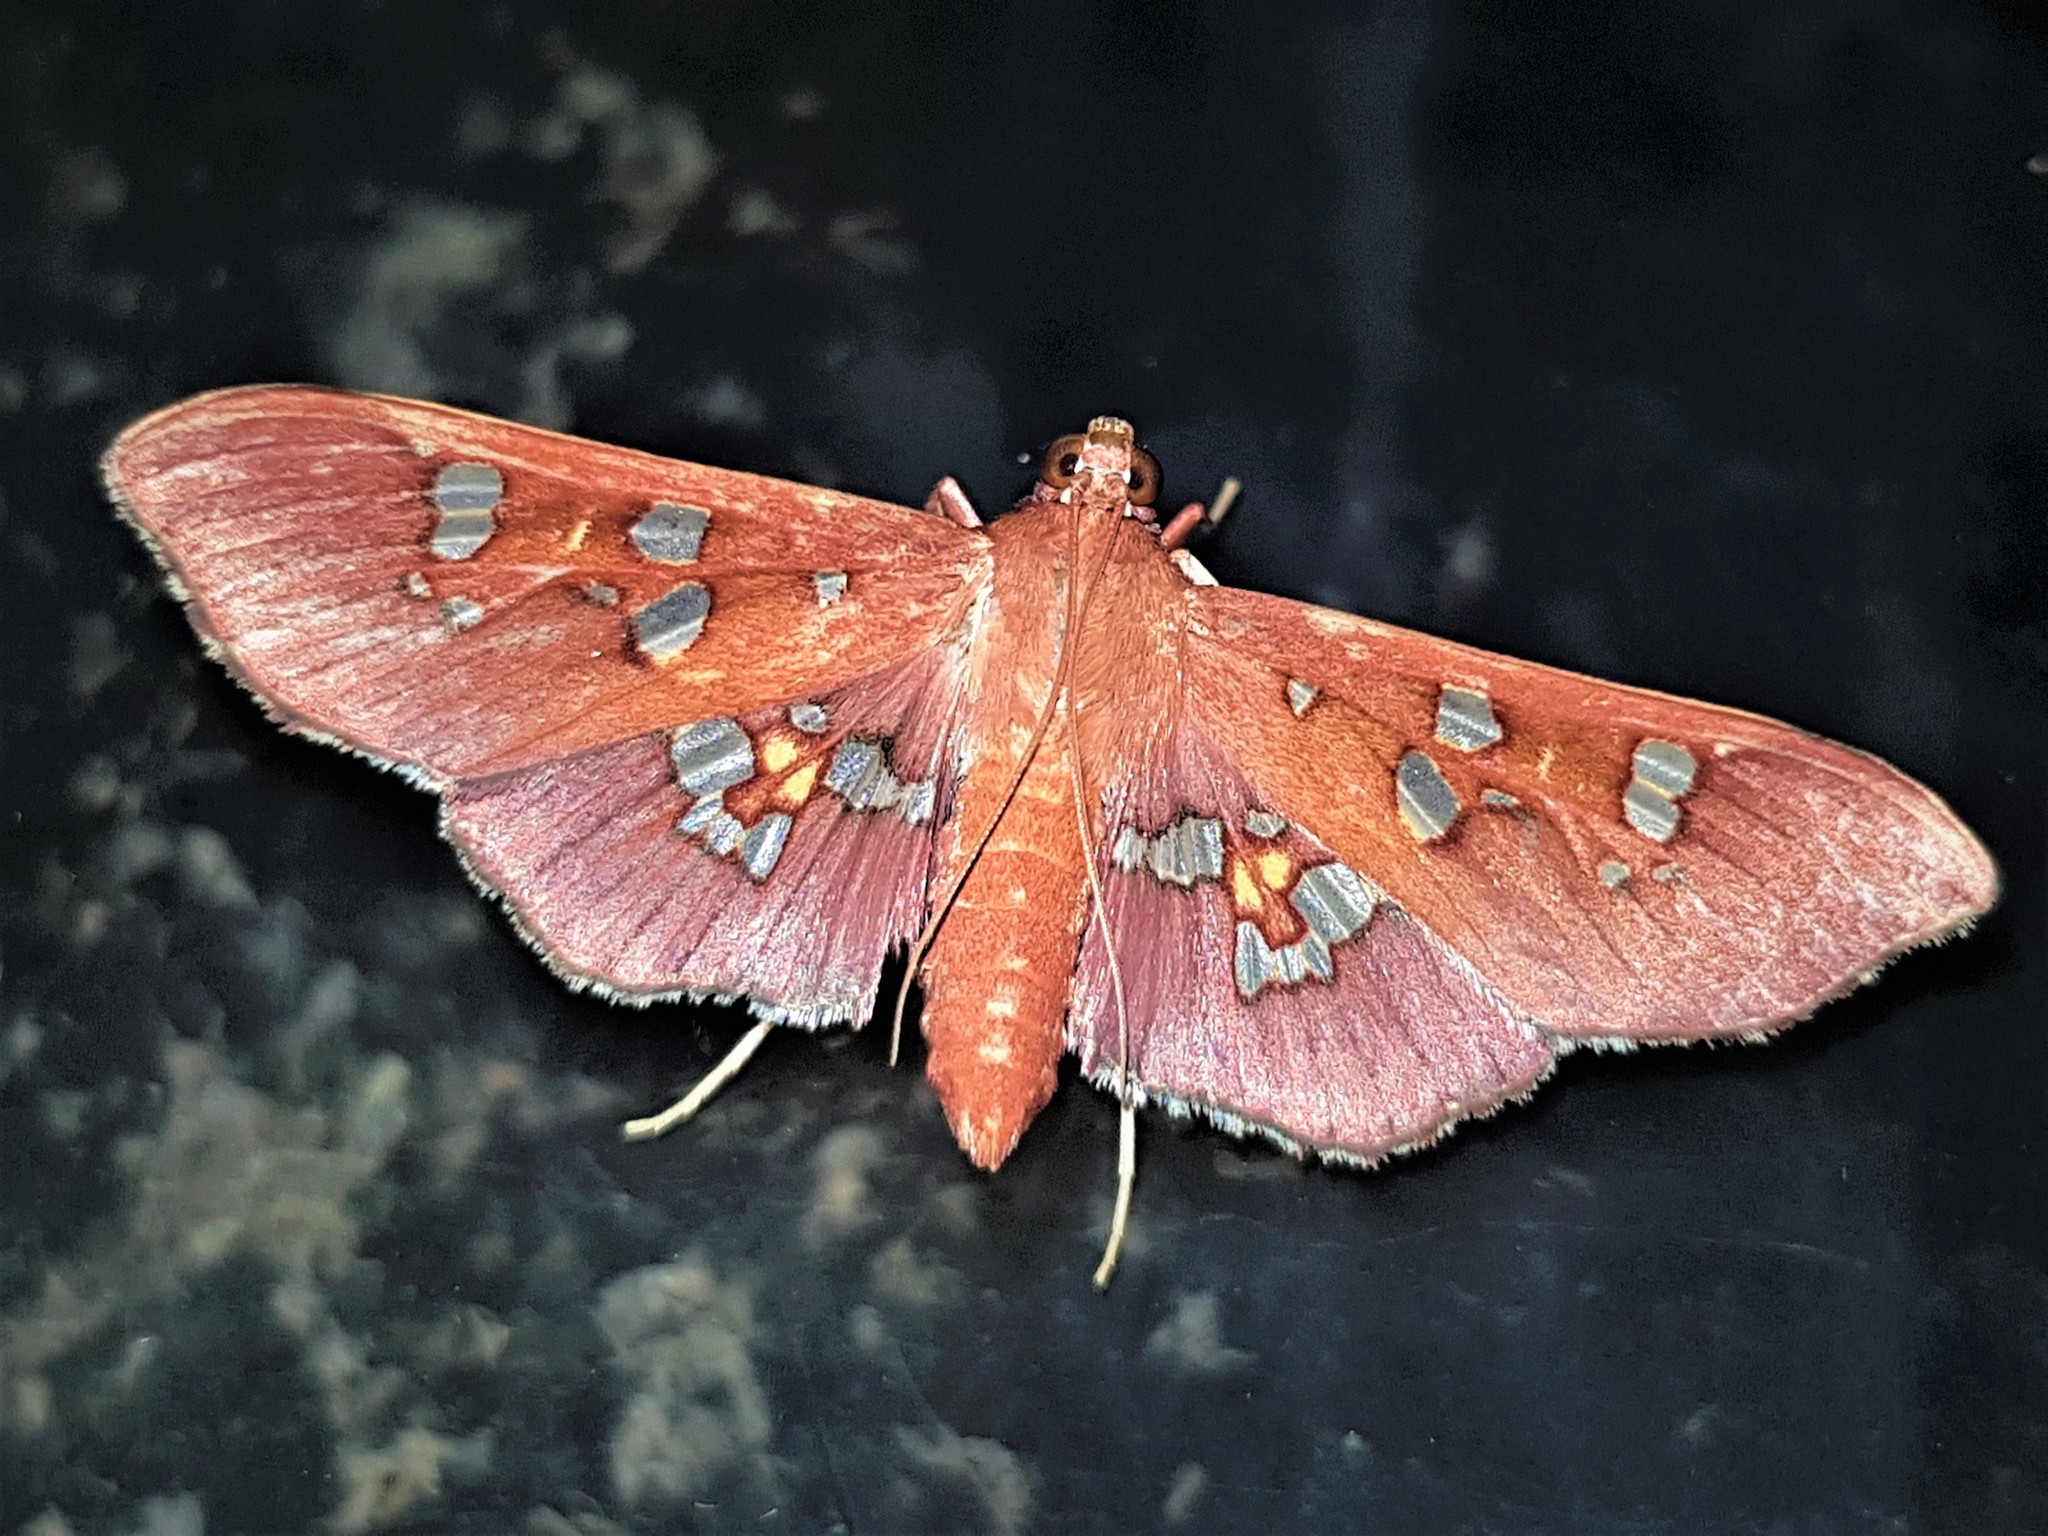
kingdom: Animalia
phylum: Arthropoda
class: Insecta
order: Lepidoptera
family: Crambidae
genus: Phostria
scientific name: Phostria temira
